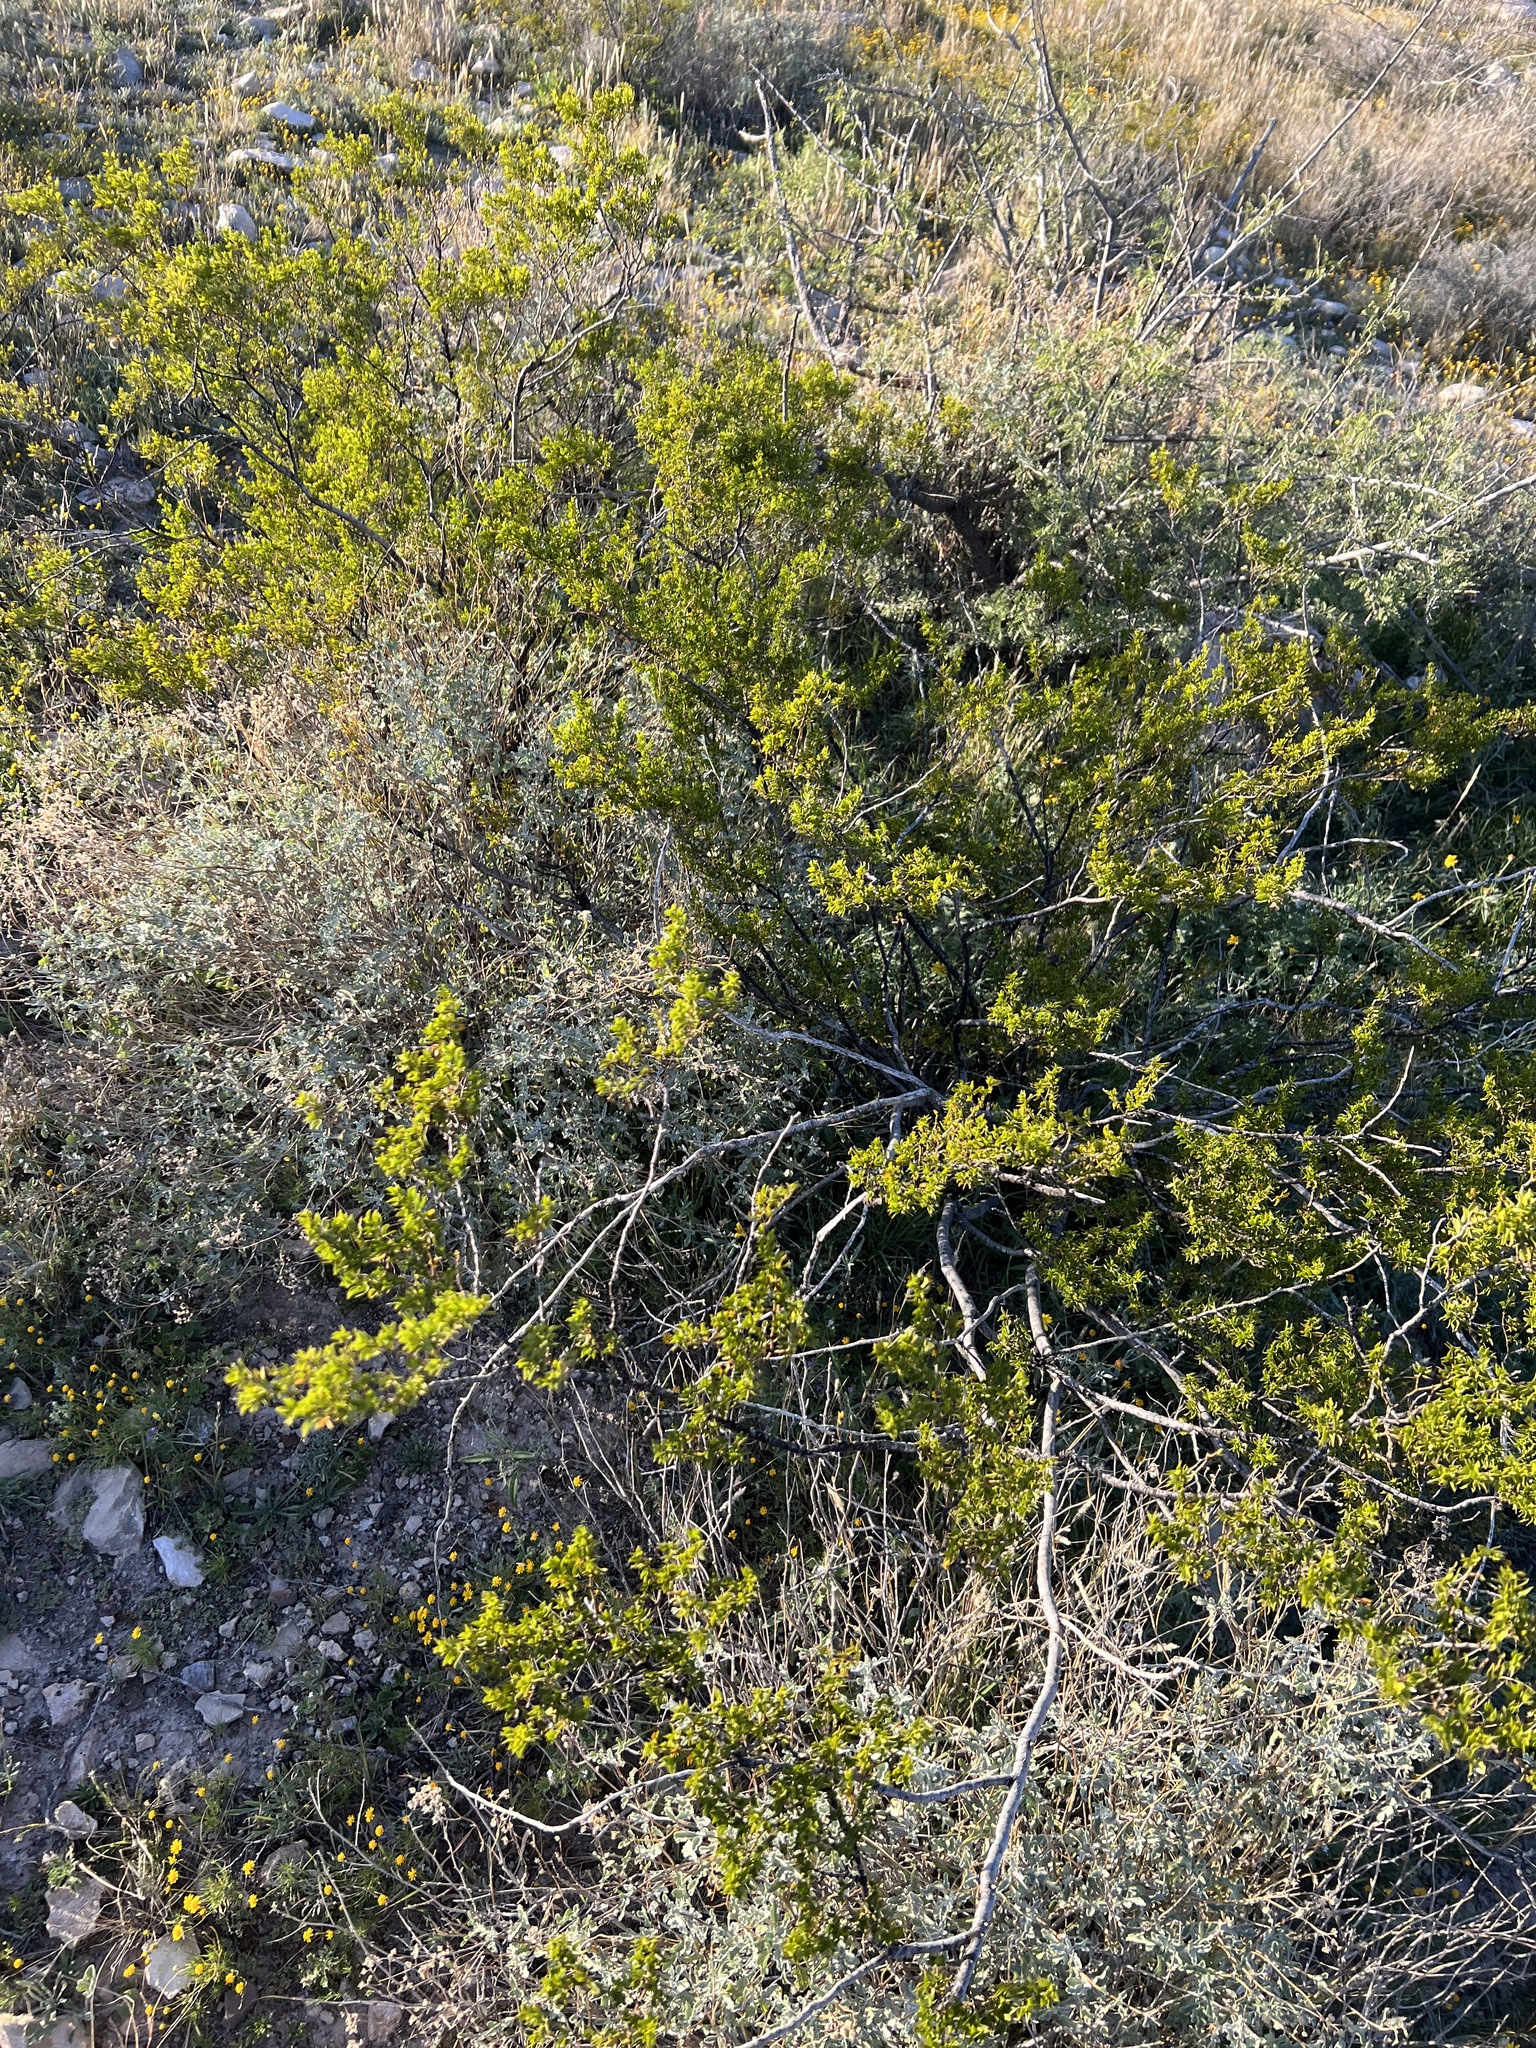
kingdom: Plantae
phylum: Tracheophyta
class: Magnoliopsida
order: Zygophyllales
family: Zygophyllaceae
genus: Larrea
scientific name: Larrea tridentata
